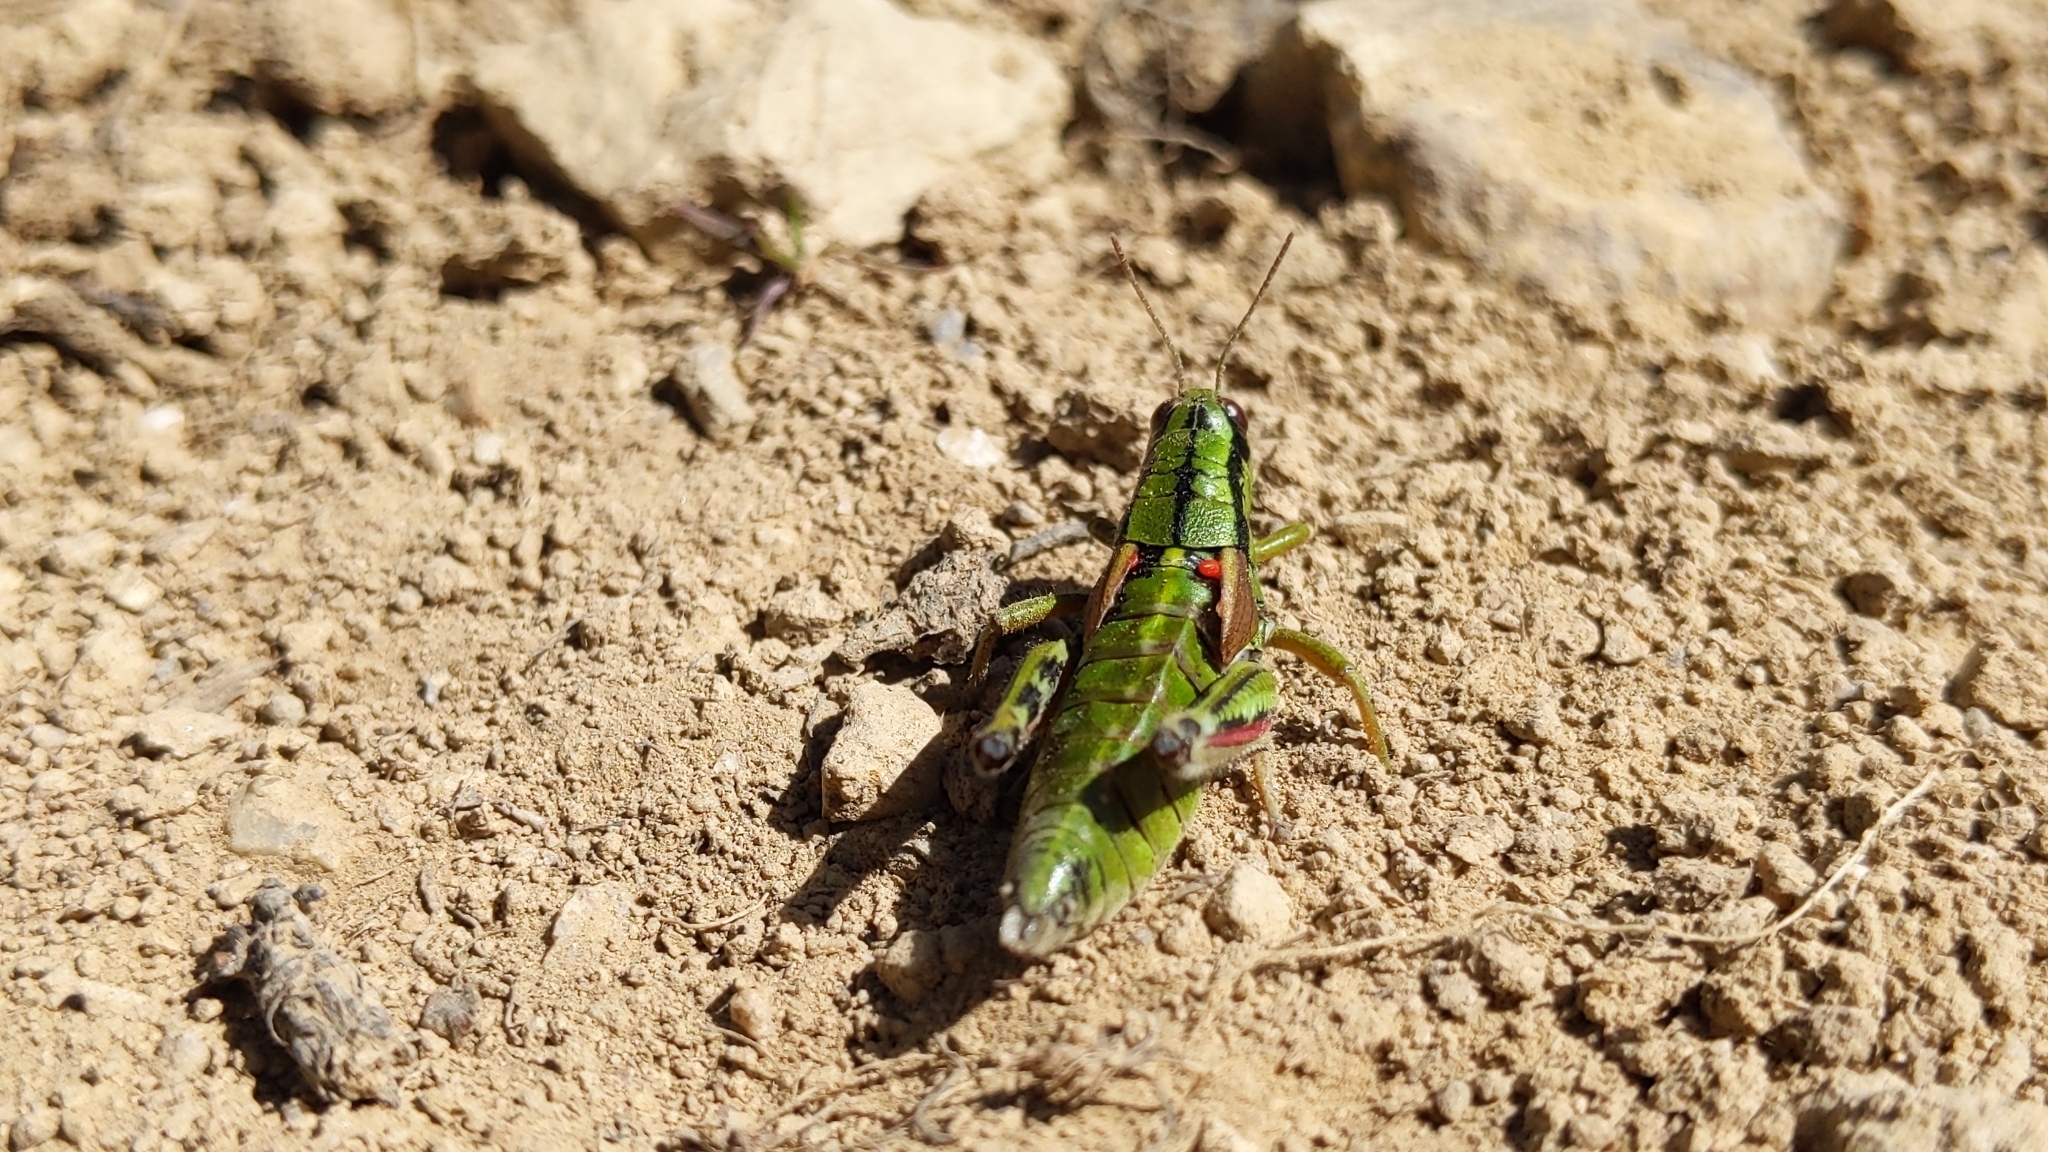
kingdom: Animalia
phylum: Arthropoda
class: Insecta
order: Orthoptera
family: Acrididae
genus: Miramella
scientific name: Miramella alpina
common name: Green mountain grasshopper
